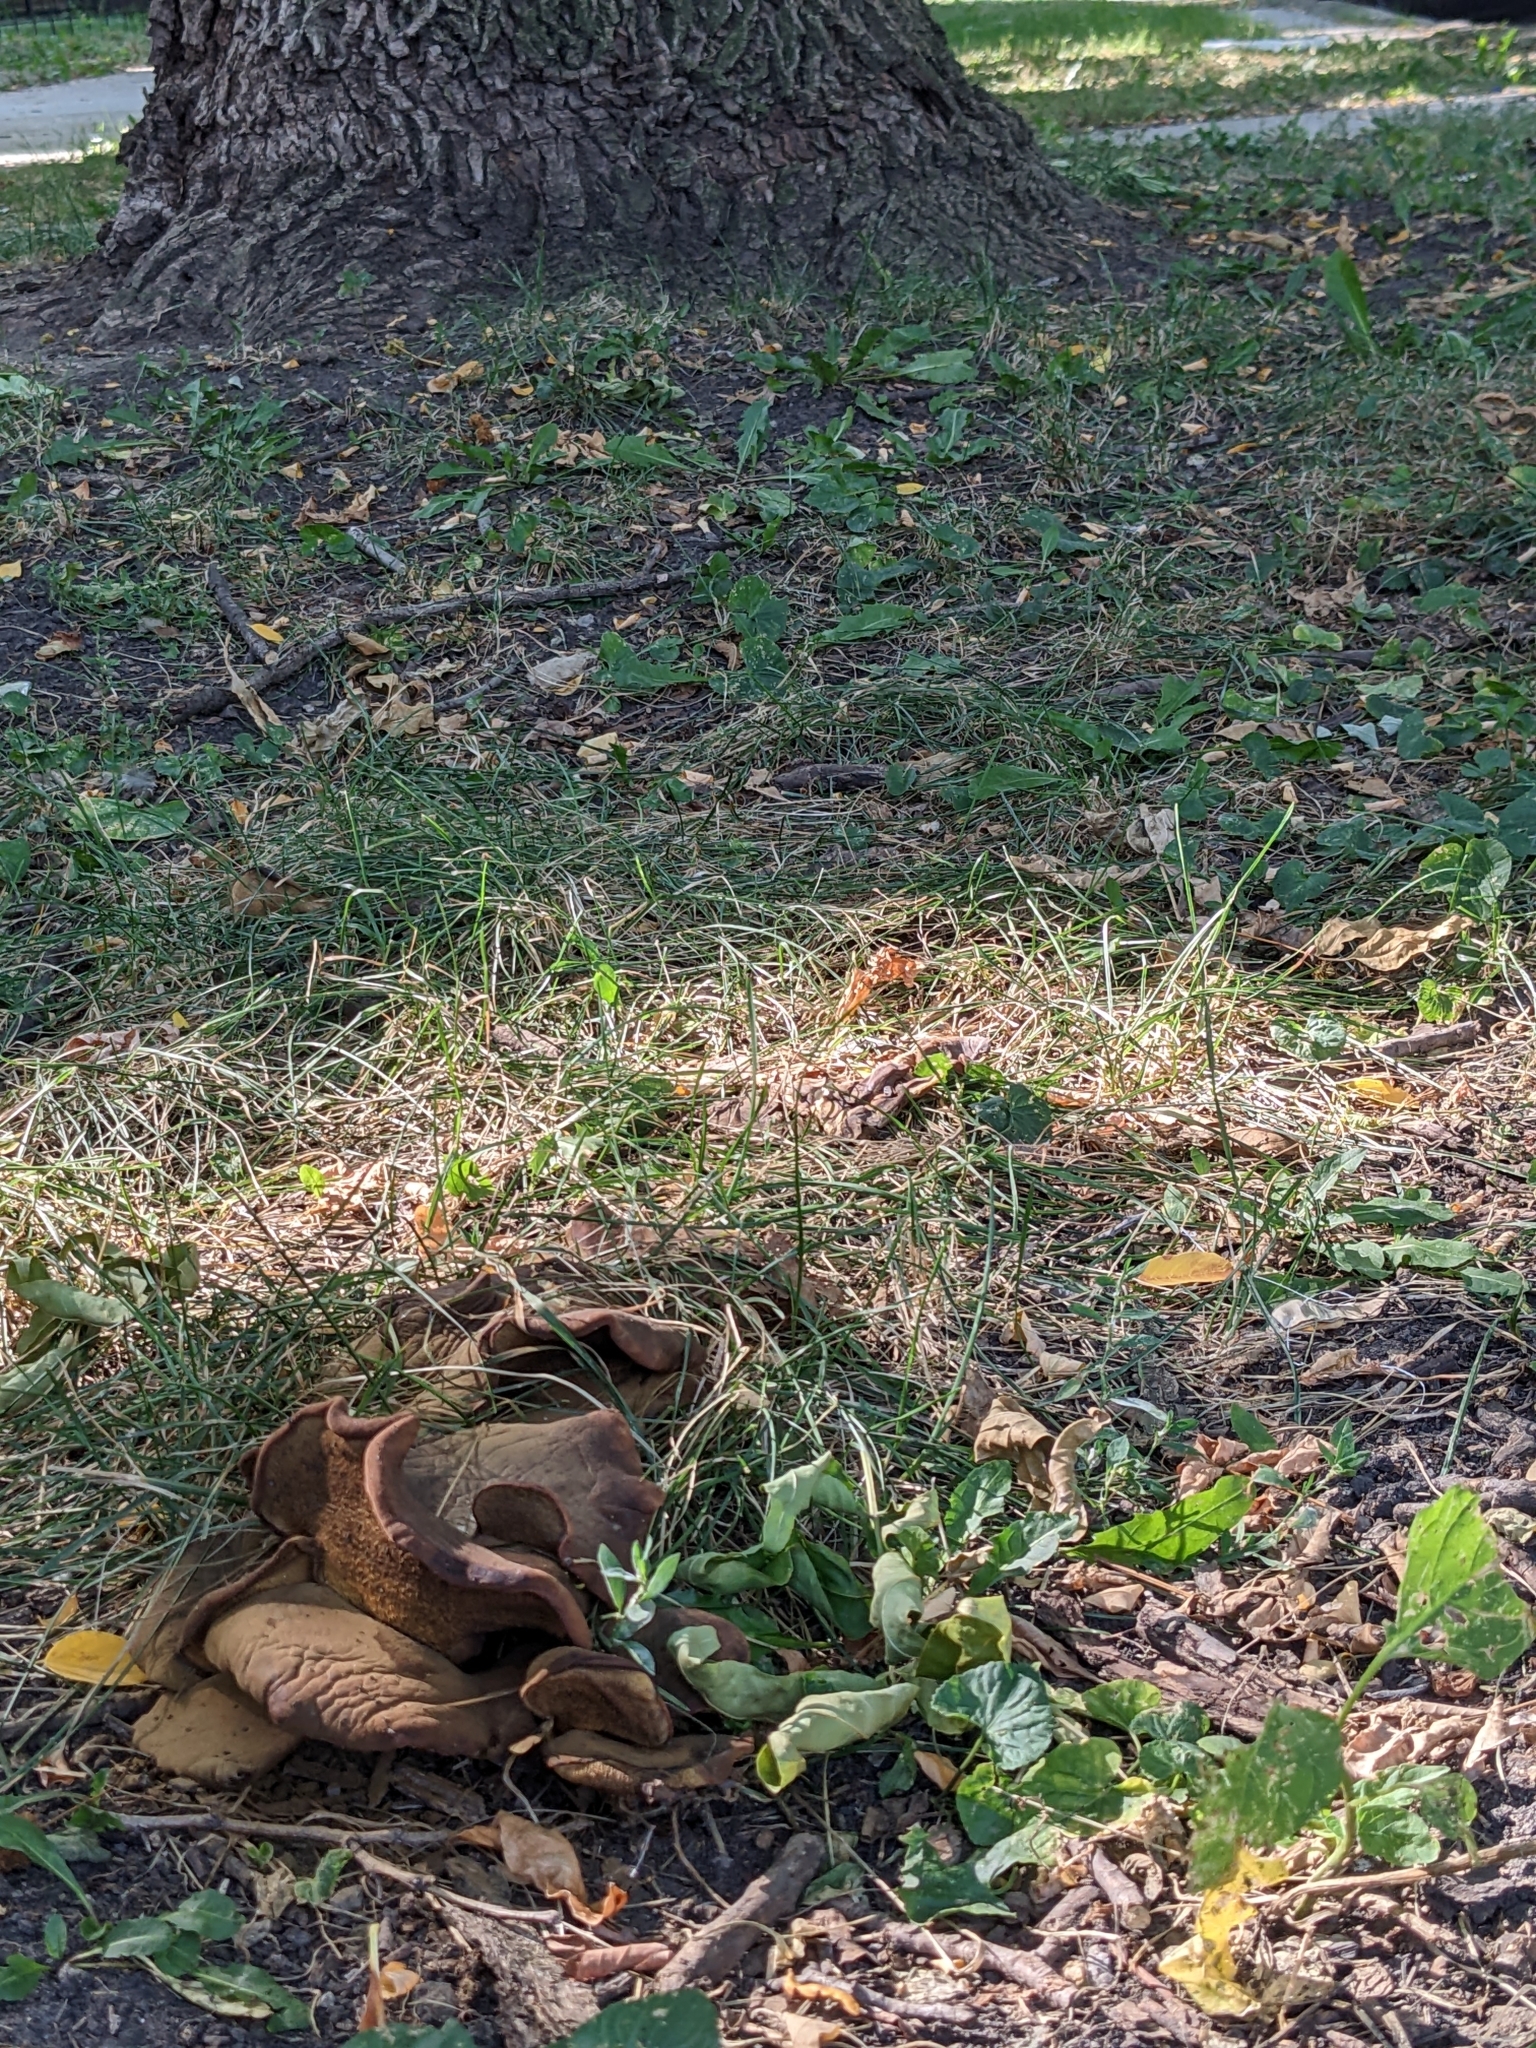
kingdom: Fungi
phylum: Basidiomycota
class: Agaricomycetes
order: Boletales
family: Boletinellaceae
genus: Boletinellus
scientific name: Boletinellus merulioides
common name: Ash tree bolete
